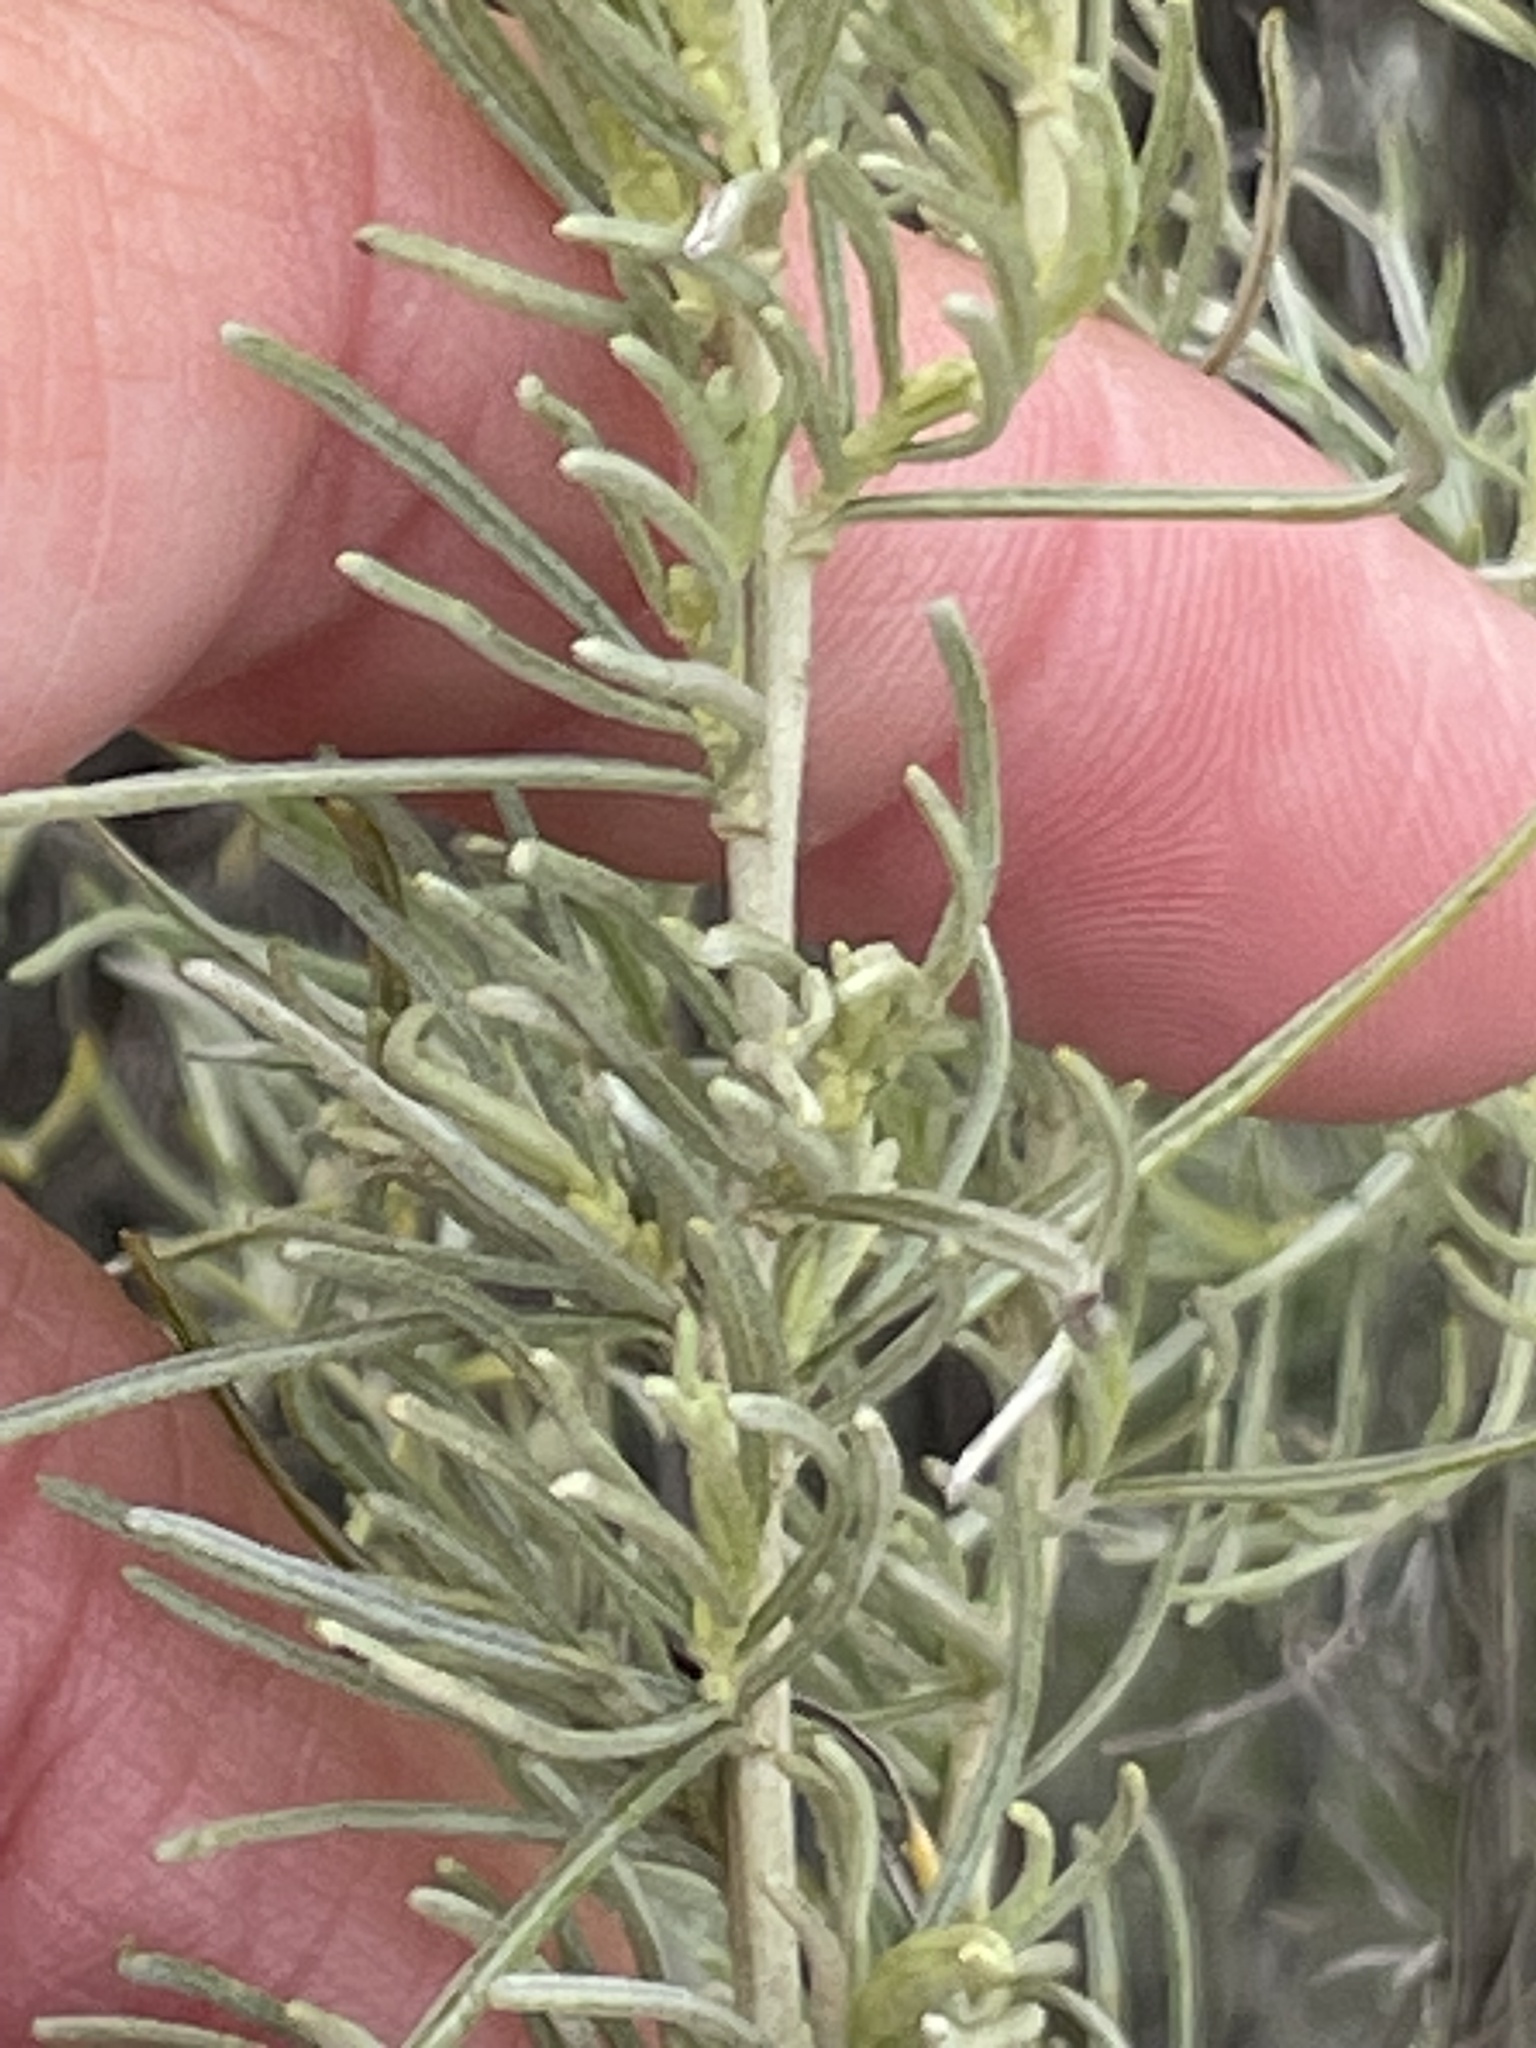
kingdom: Plantae
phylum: Tracheophyta
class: Magnoliopsida
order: Asterales
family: Asteraceae
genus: Artemisia
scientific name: Artemisia californica
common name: California sagebrush
